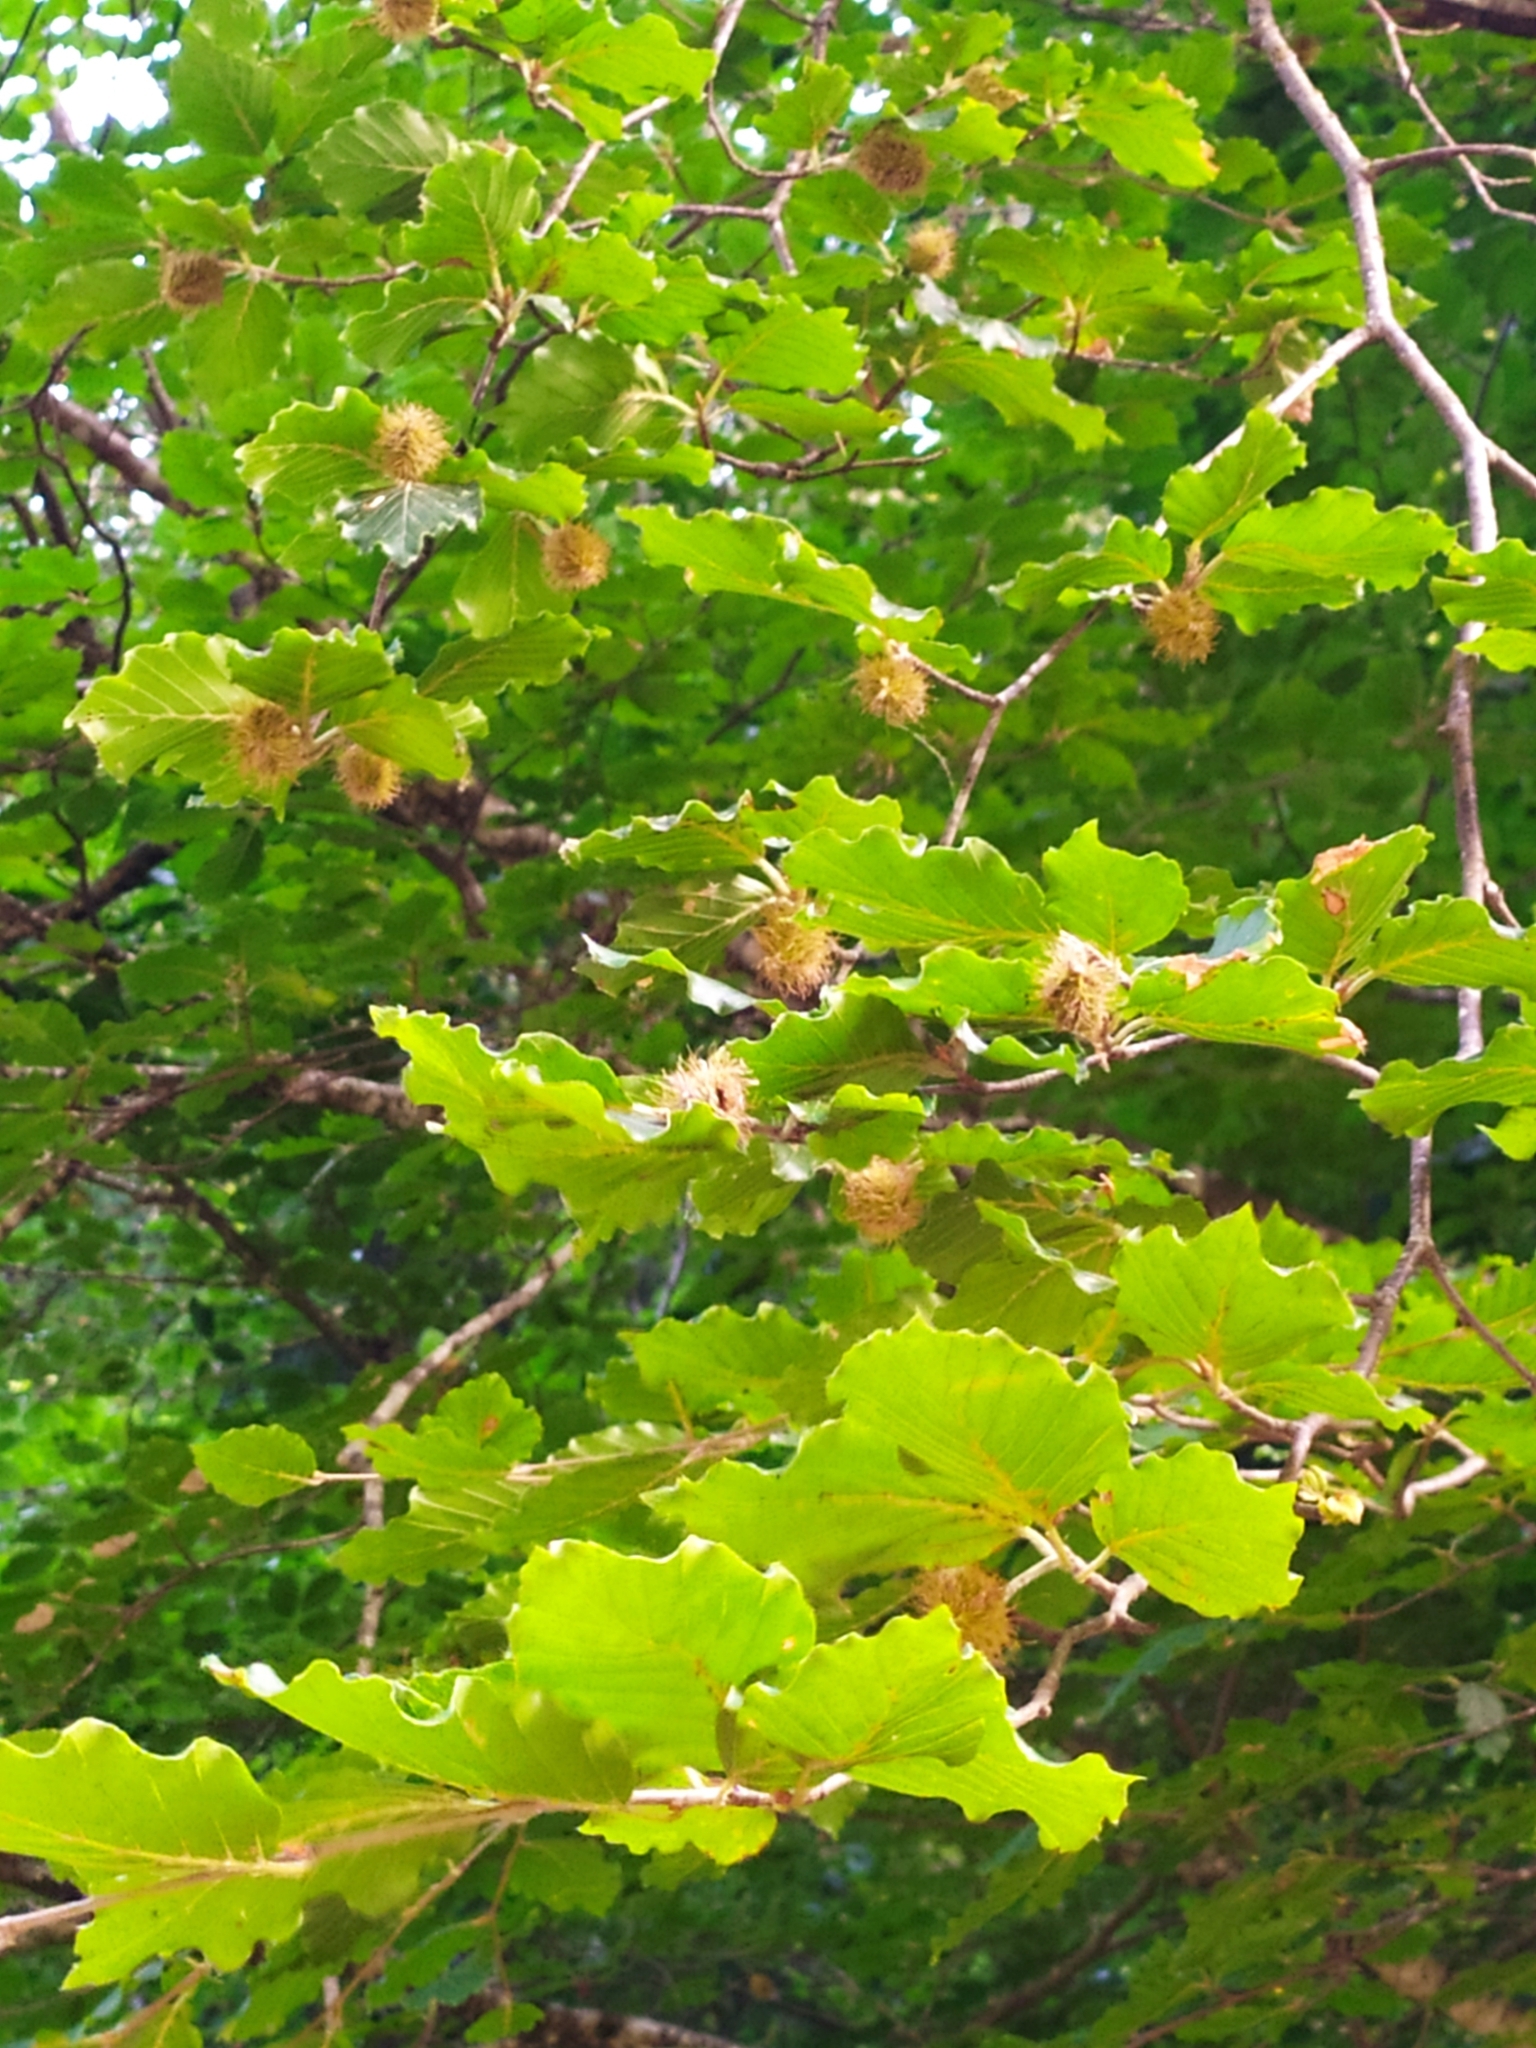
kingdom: Plantae
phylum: Tracheophyta
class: Magnoliopsida
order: Fagales
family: Fagaceae
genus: Fagus
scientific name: Fagus sylvatica
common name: Beech
